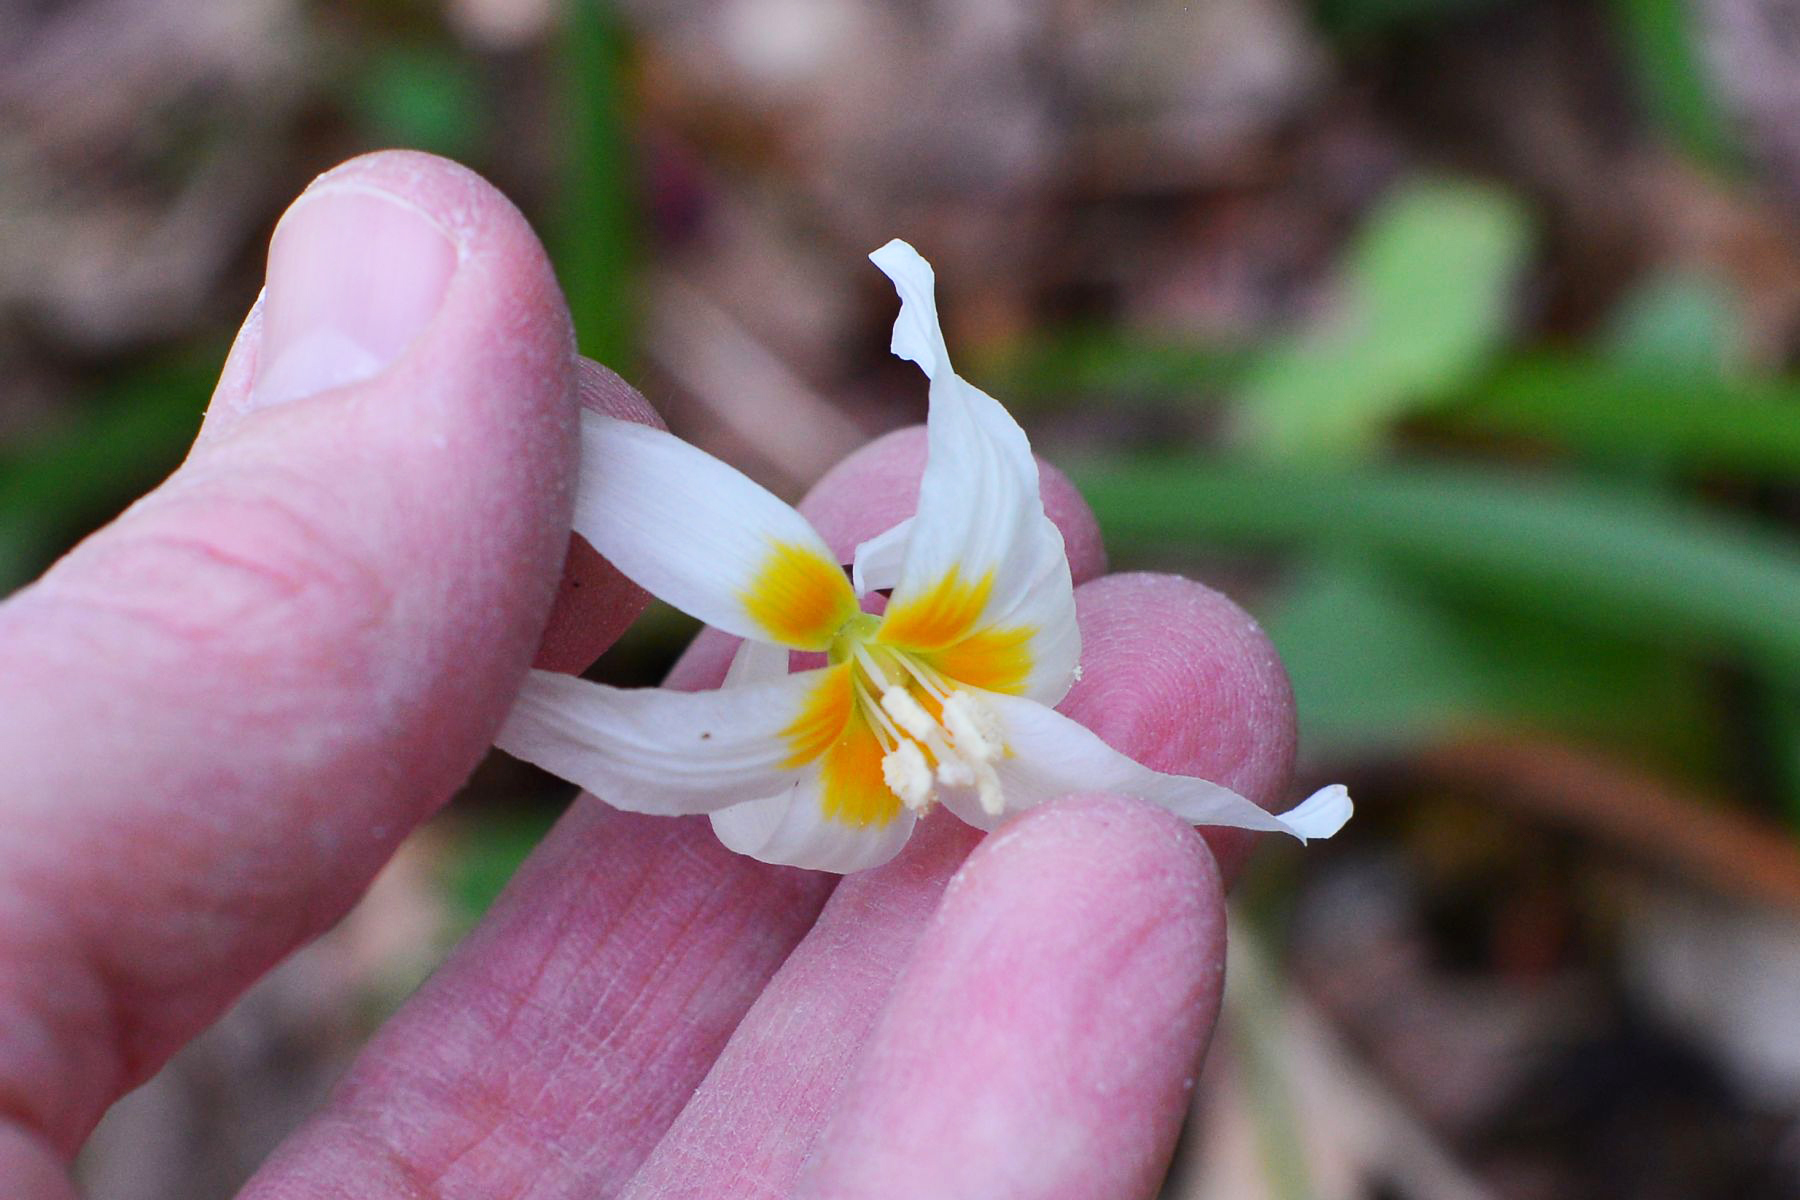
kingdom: Plantae
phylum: Tracheophyta
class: Liliopsida
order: Liliales
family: Liliaceae
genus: Erythronium
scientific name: Erythronium howellii
